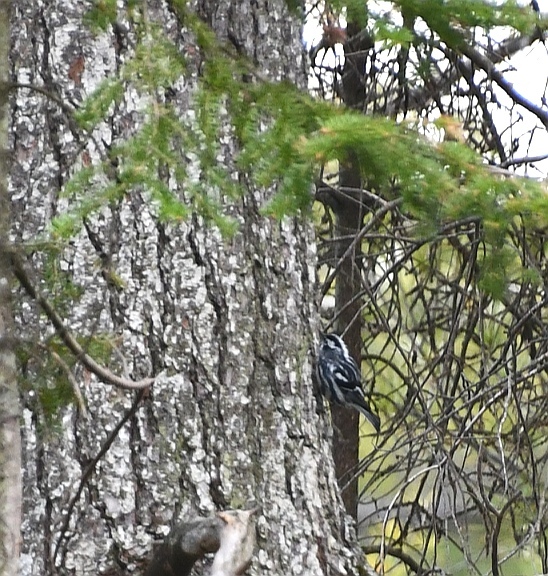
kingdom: Animalia
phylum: Chordata
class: Aves
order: Passeriformes
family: Parulidae
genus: Mniotilta
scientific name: Mniotilta varia
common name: Black-and-white warbler
